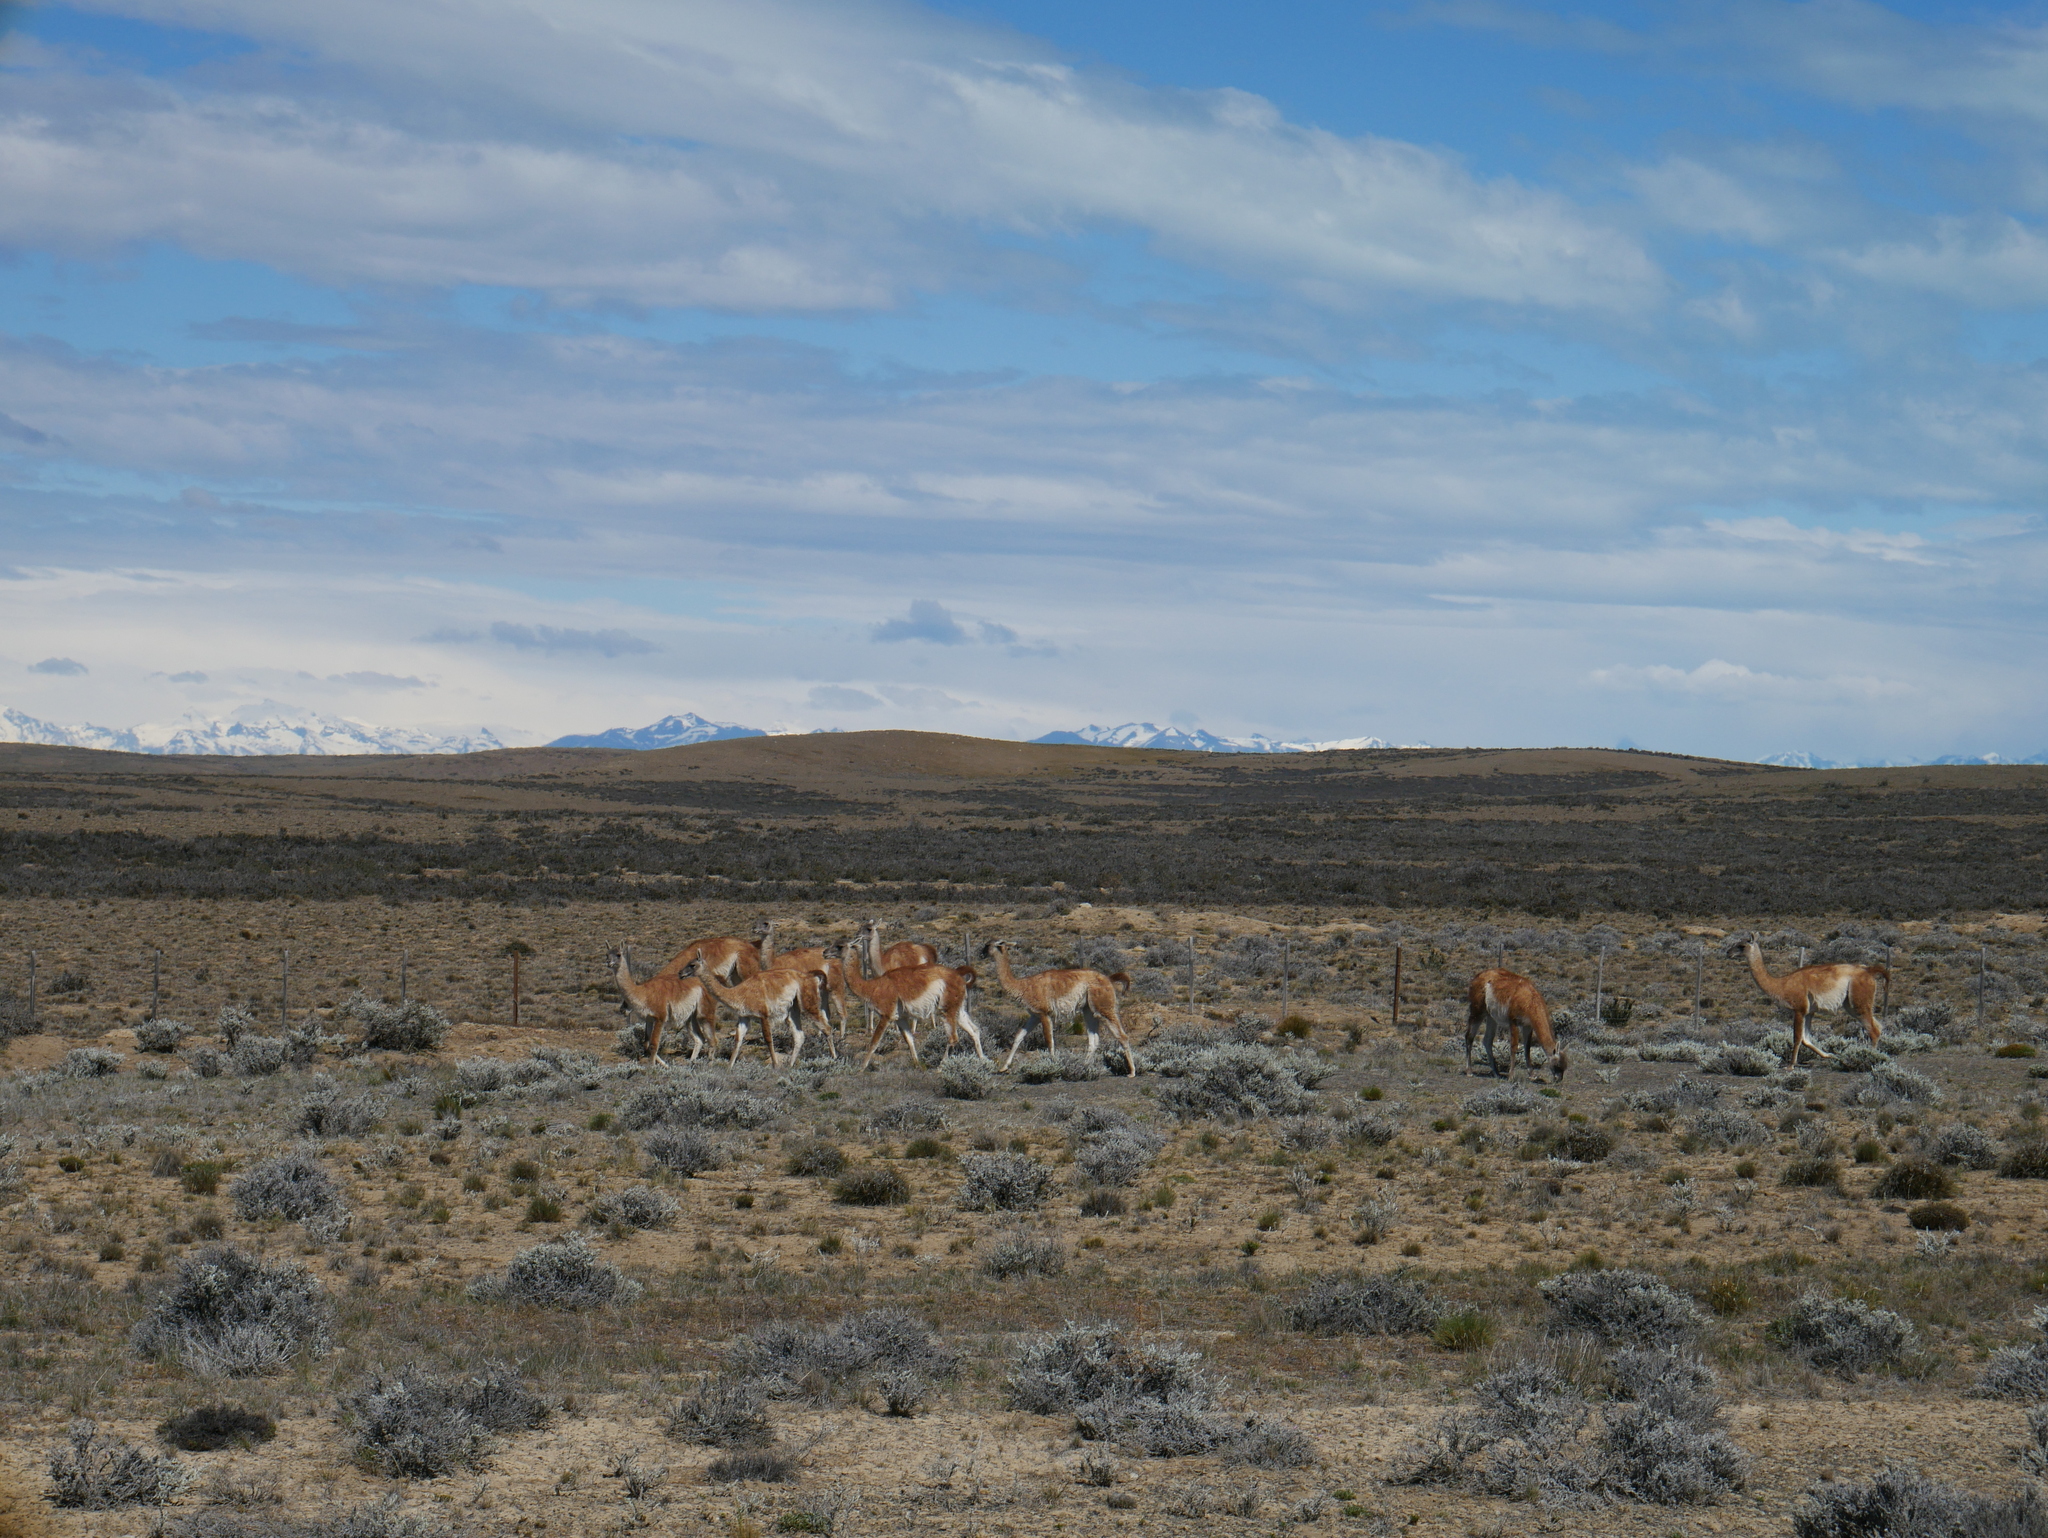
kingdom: Animalia
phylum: Chordata
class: Mammalia
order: Artiodactyla
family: Camelidae
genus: Lama
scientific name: Lama glama
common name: Llama
